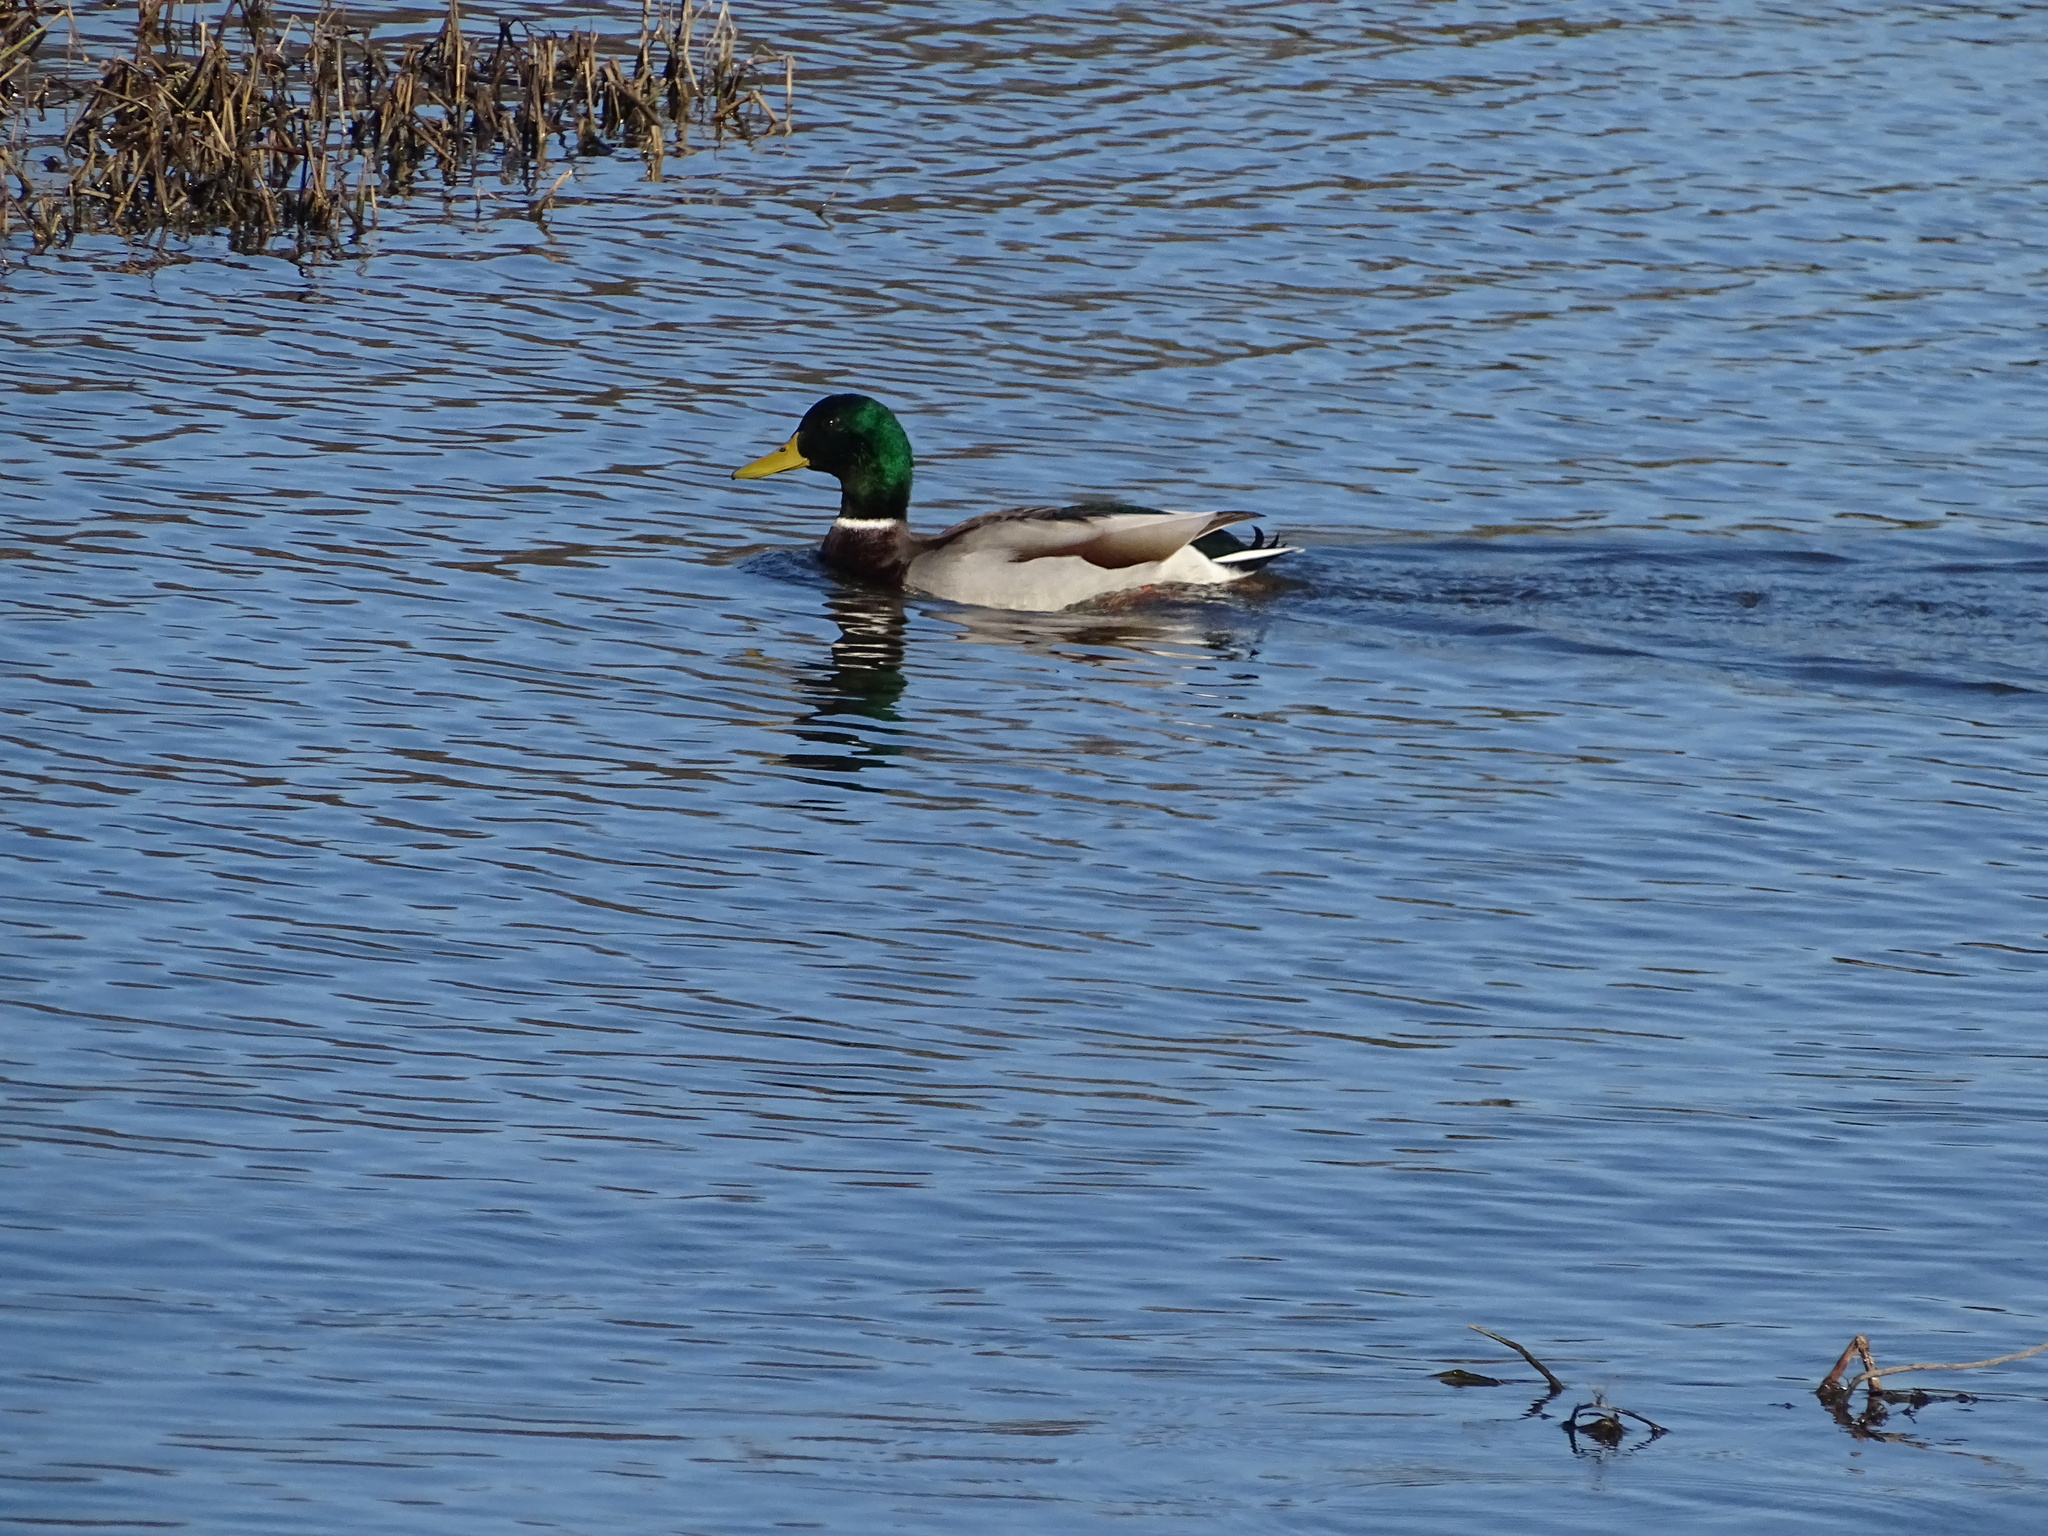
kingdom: Animalia
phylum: Chordata
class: Aves
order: Anseriformes
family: Anatidae
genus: Anas
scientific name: Anas platyrhynchos
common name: Mallard
